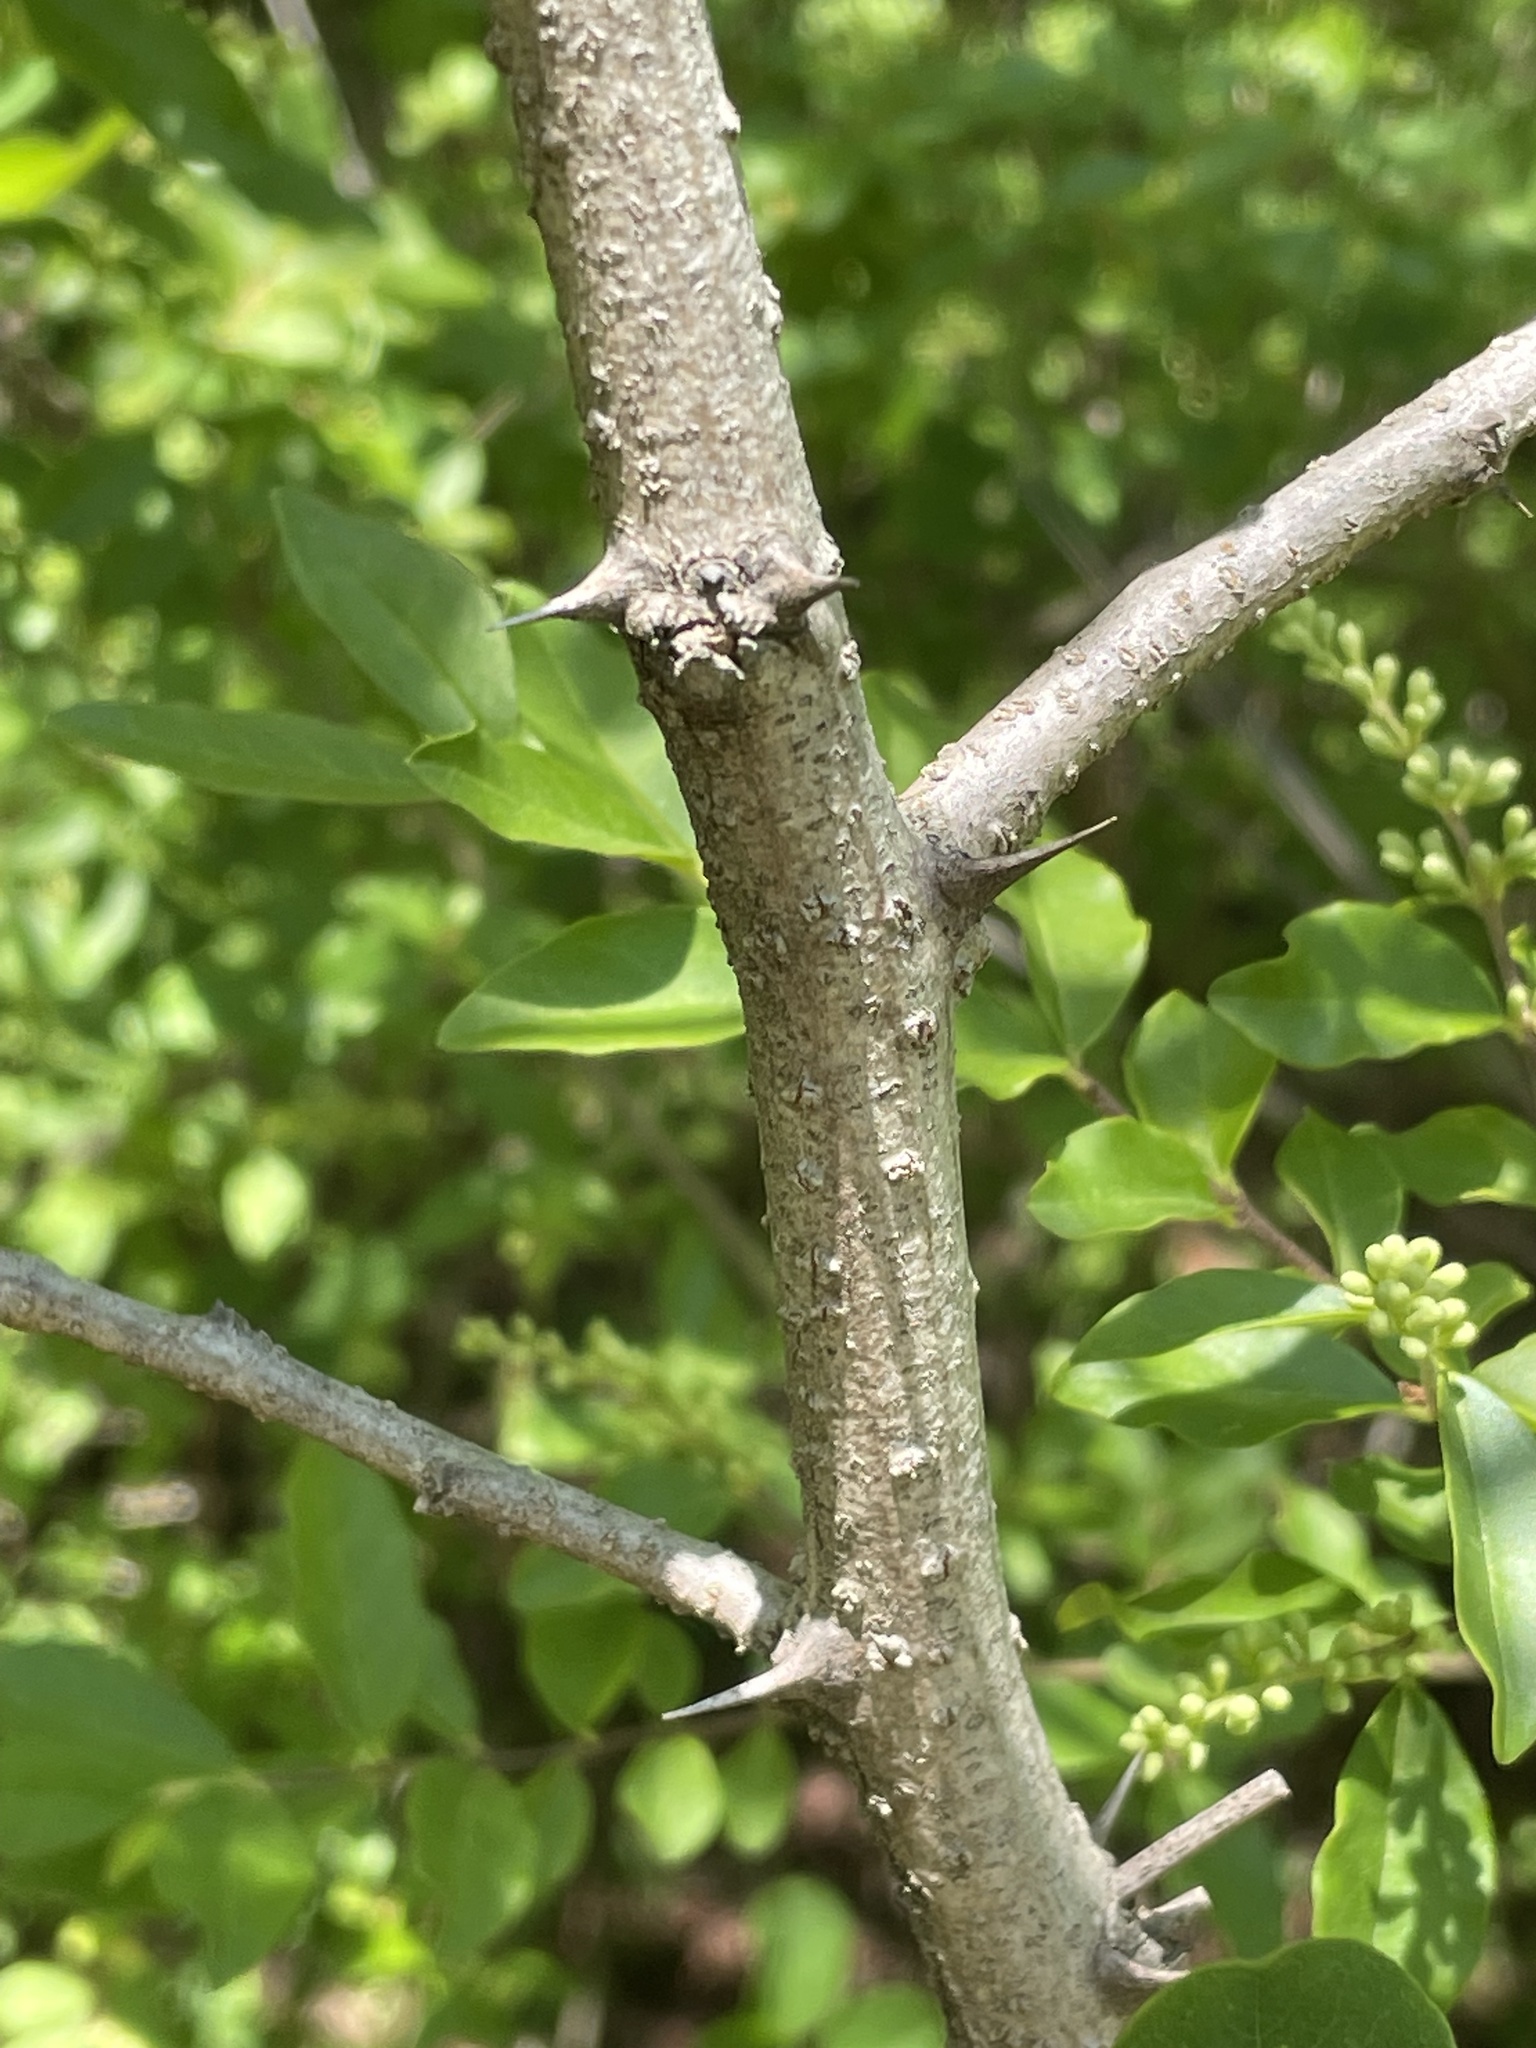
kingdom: Plantae
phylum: Tracheophyta
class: Magnoliopsida
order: Fabales
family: Fabaceae
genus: Robinia
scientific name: Robinia pseudoacacia
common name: Black locust
